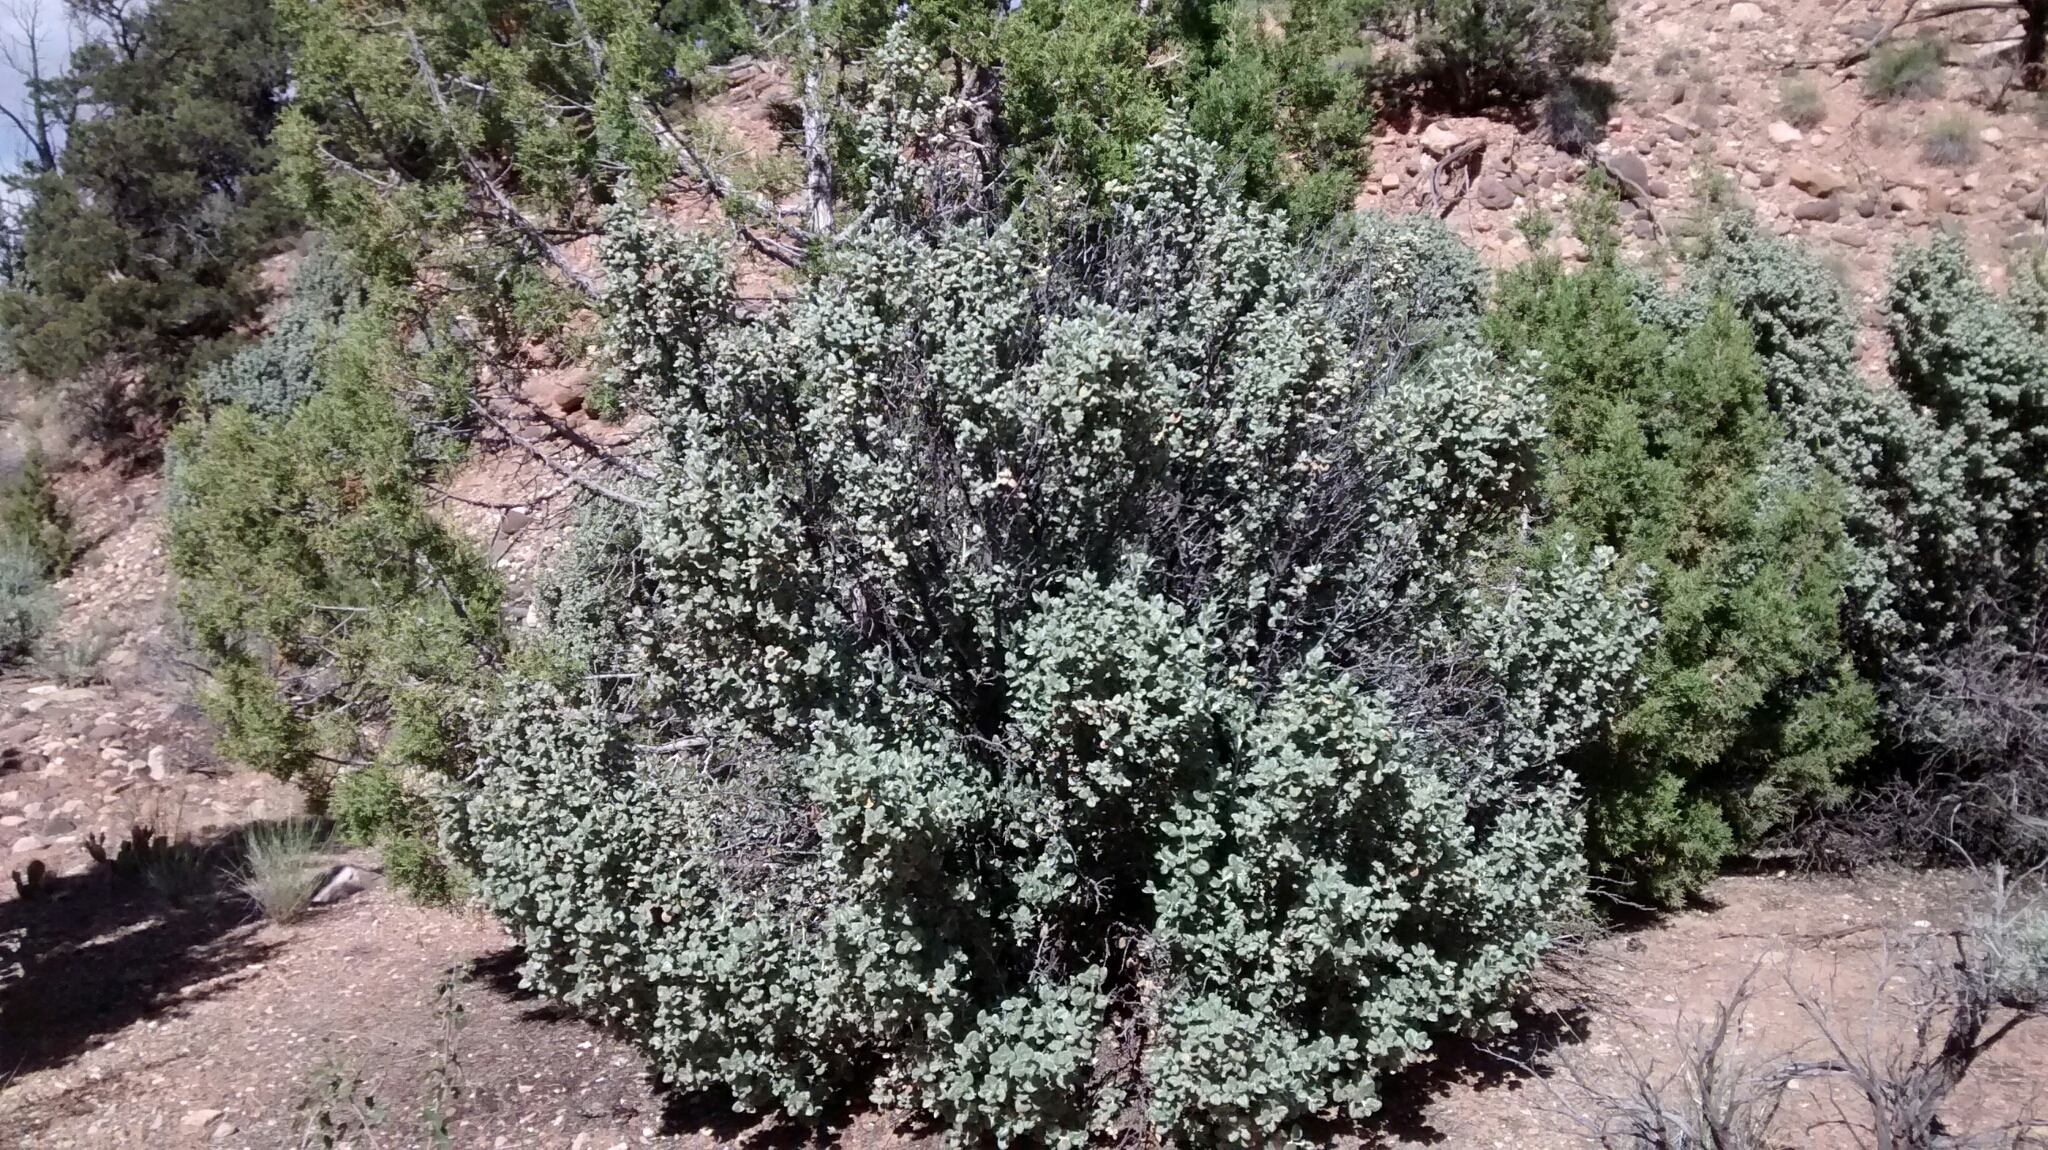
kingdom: Plantae
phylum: Tracheophyta
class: Magnoliopsida
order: Rosales
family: Elaeagnaceae
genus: Shepherdia
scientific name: Shepherdia rotundifolia
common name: Silverscale
